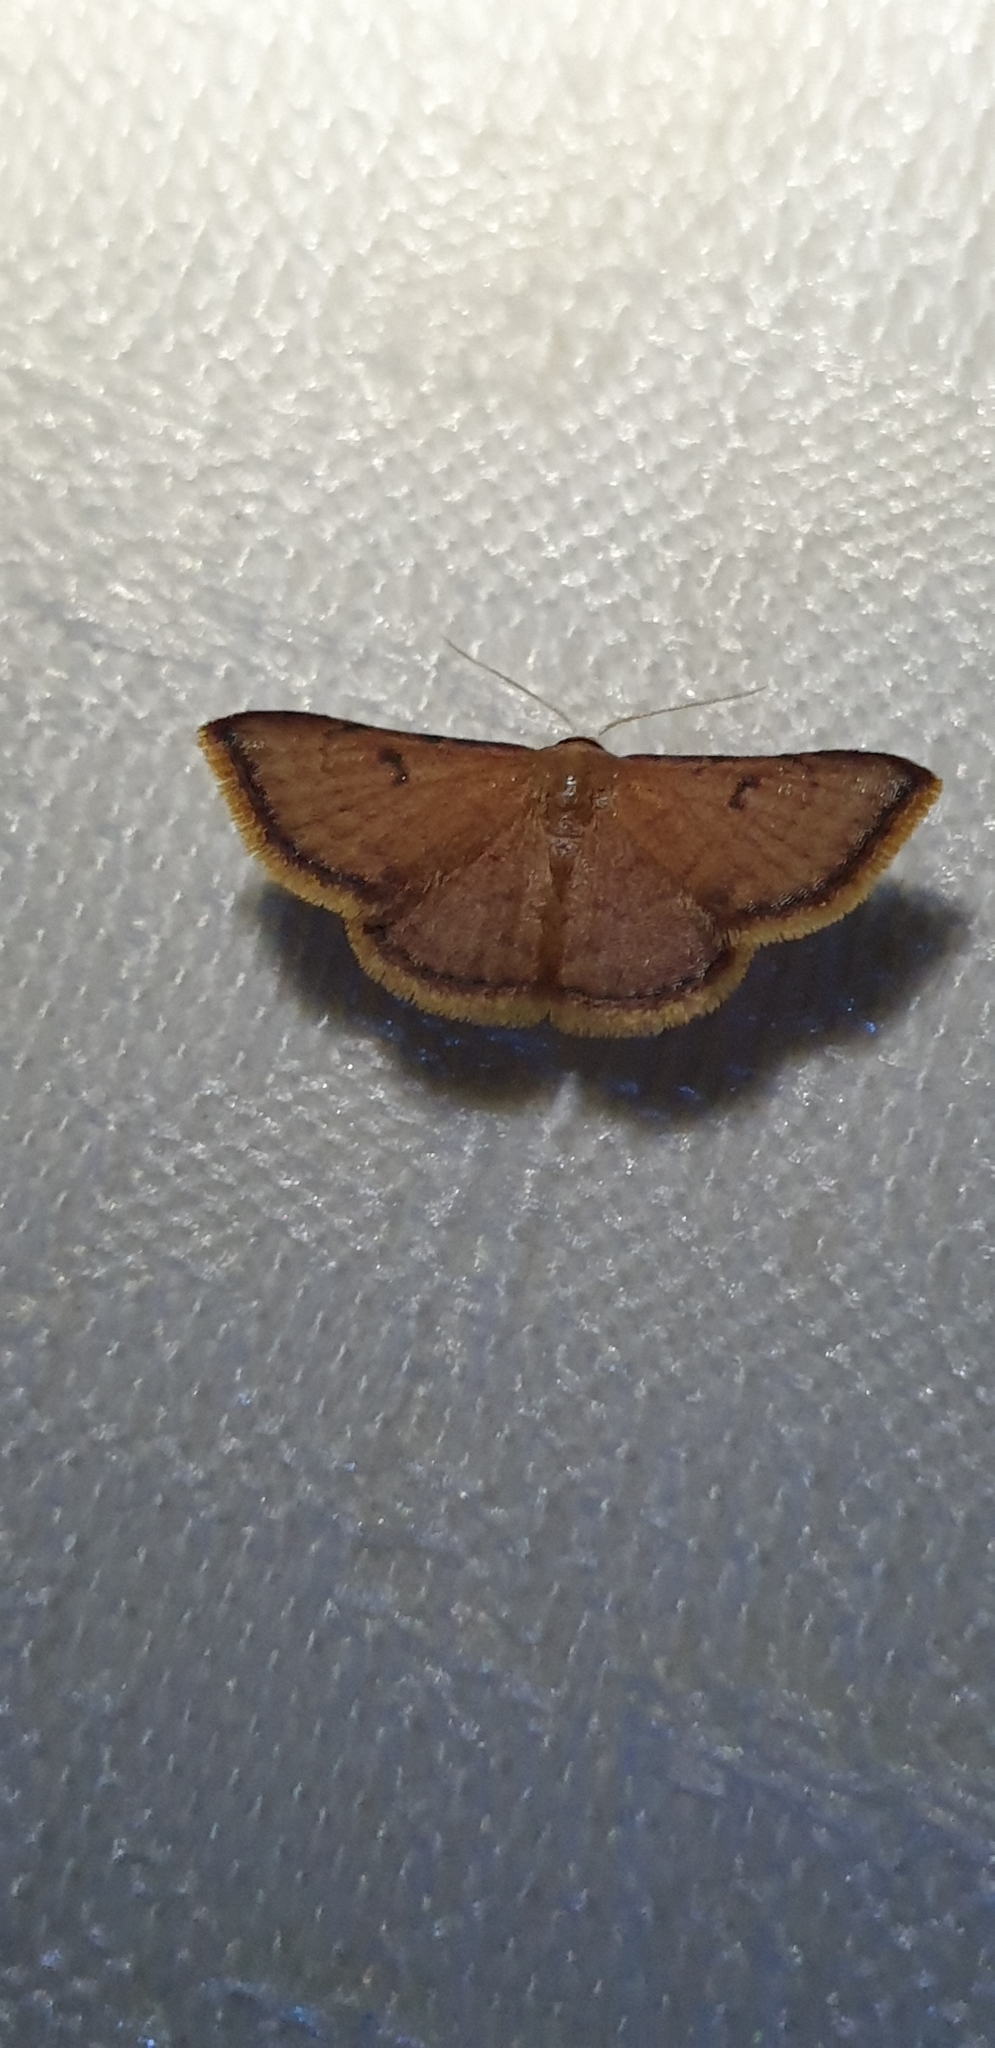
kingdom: Animalia
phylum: Arthropoda
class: Insecta
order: Lepidoptera
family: Noctuidae
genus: Enispa
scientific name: Enispa parva
